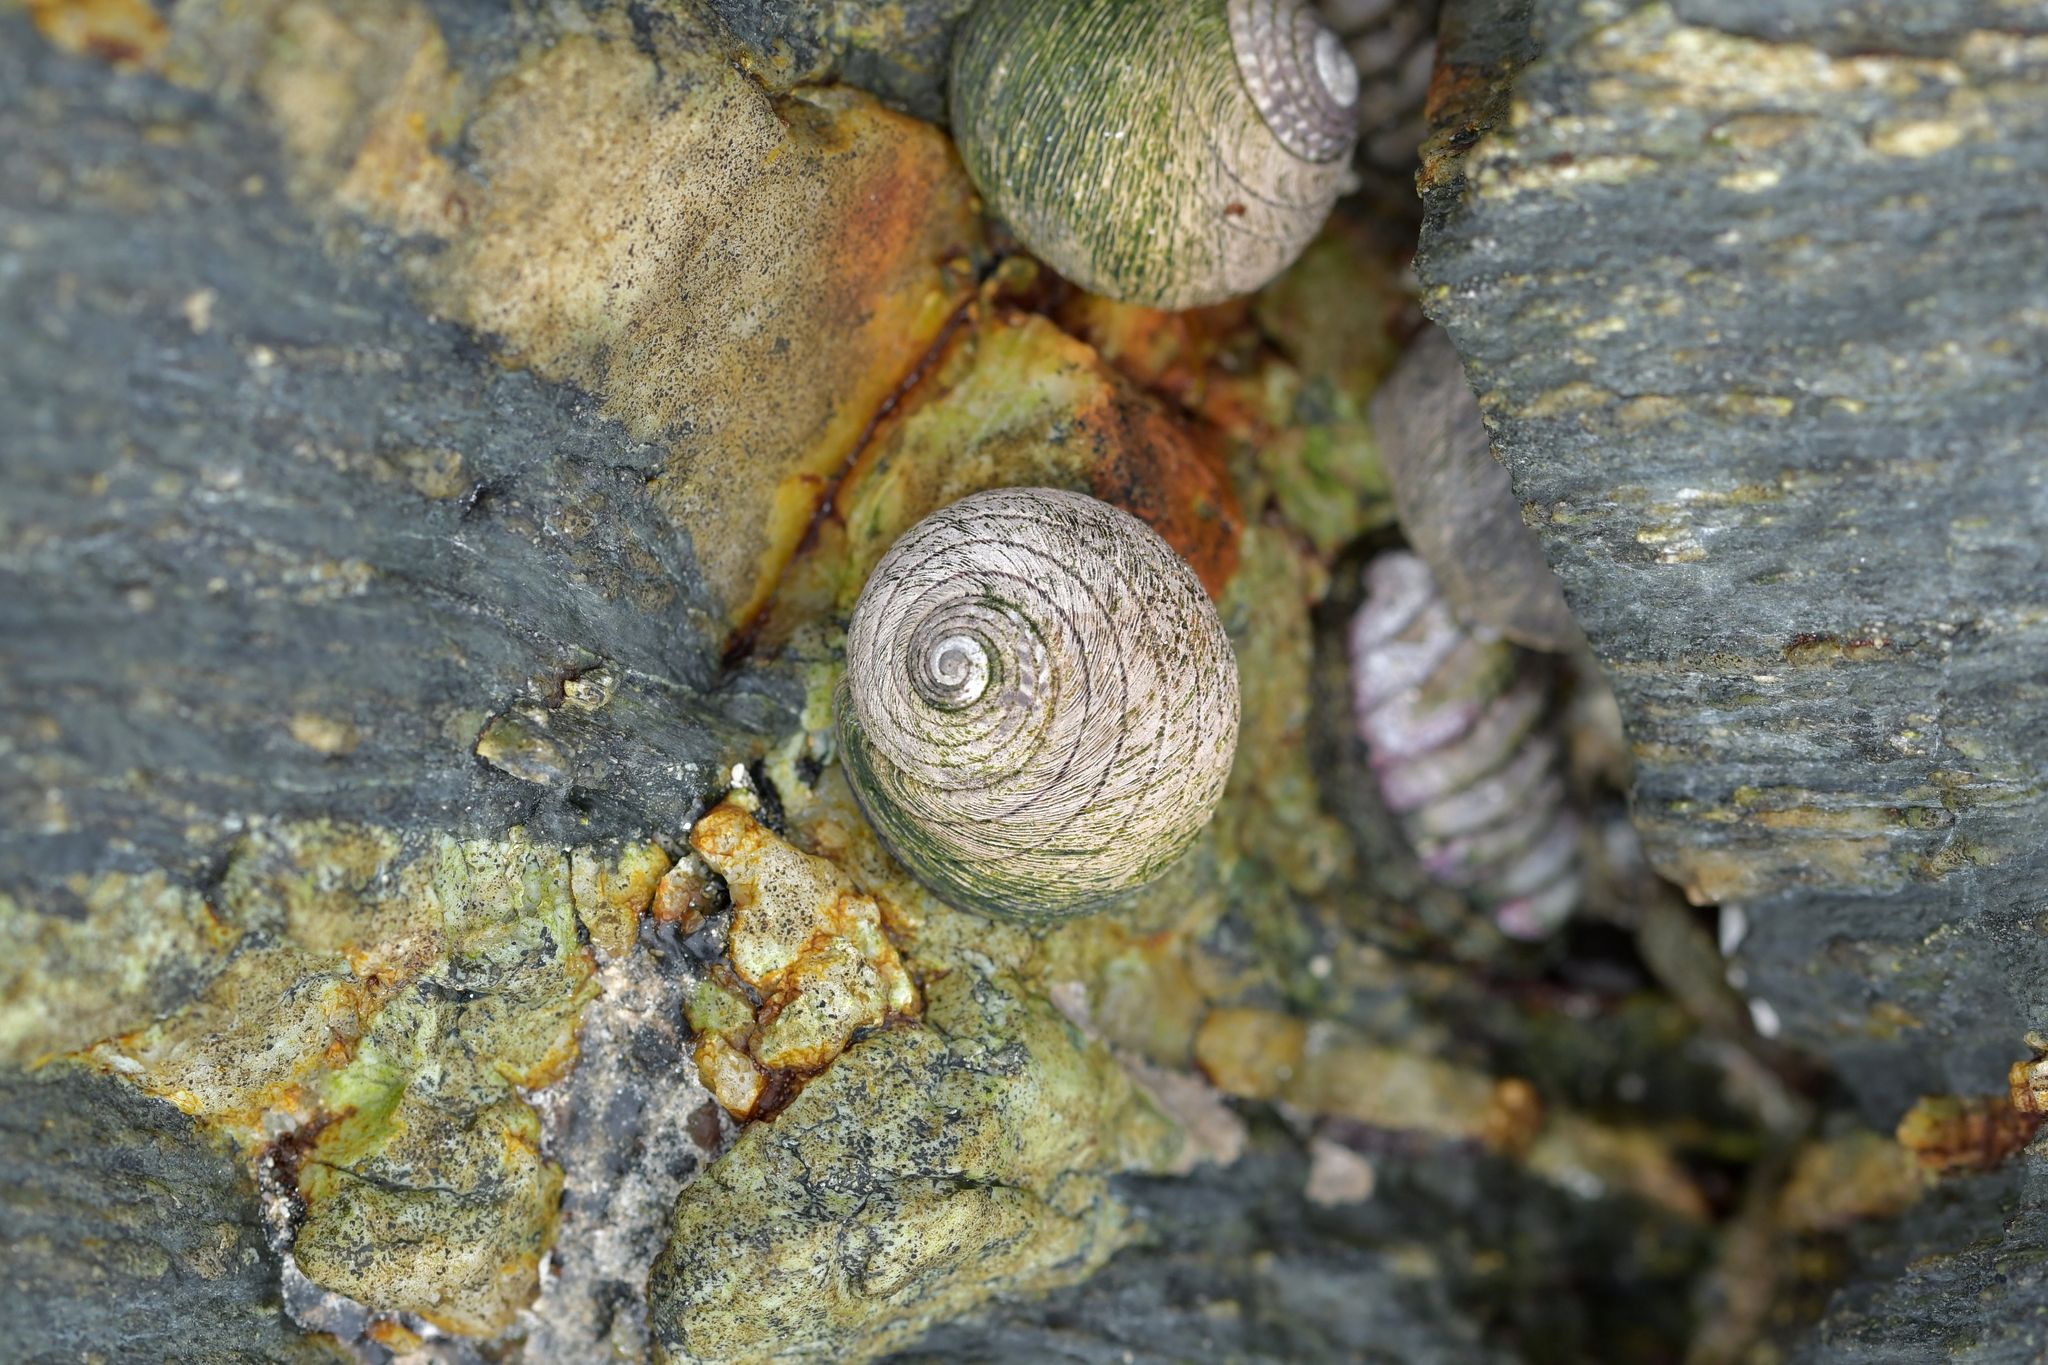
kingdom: Animalia
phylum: Mollusca
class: Gastropoda
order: Trochida
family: Trochidae
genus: Diloma
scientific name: Diloma aethiops
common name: Scorched monodont
